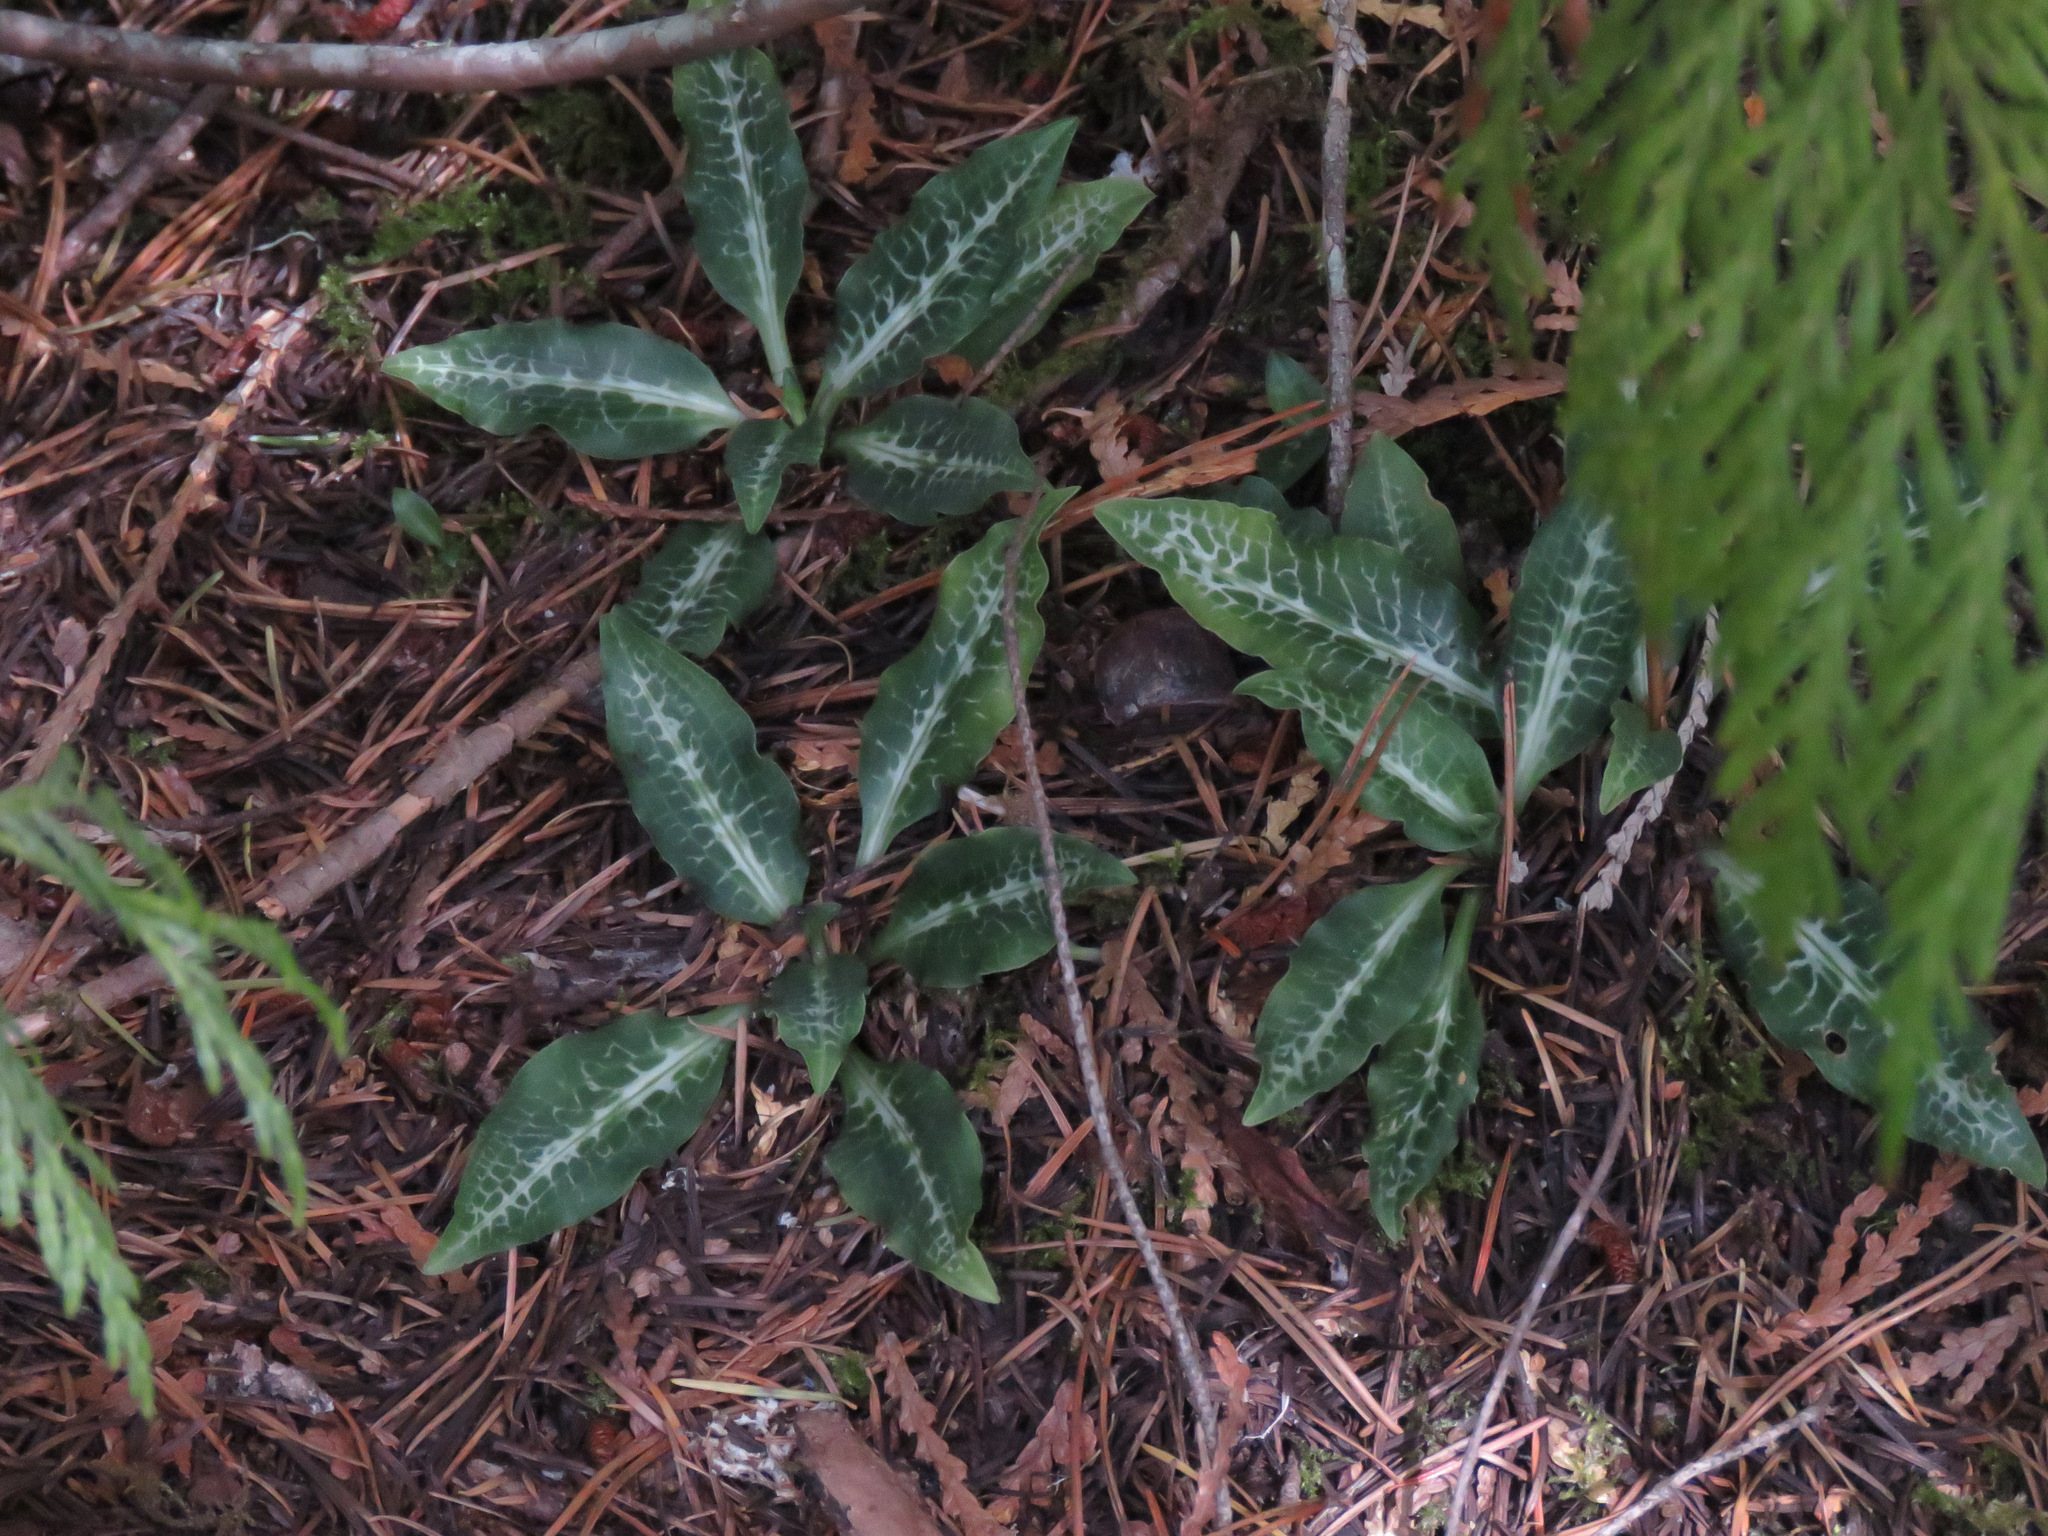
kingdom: Plantae
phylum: Tracheophyta
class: Liliopsida
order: Asparagales
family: Orchidaceae
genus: Goodyera
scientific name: Goodyera oblongifolia
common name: Giant rattlesnake-plantain
